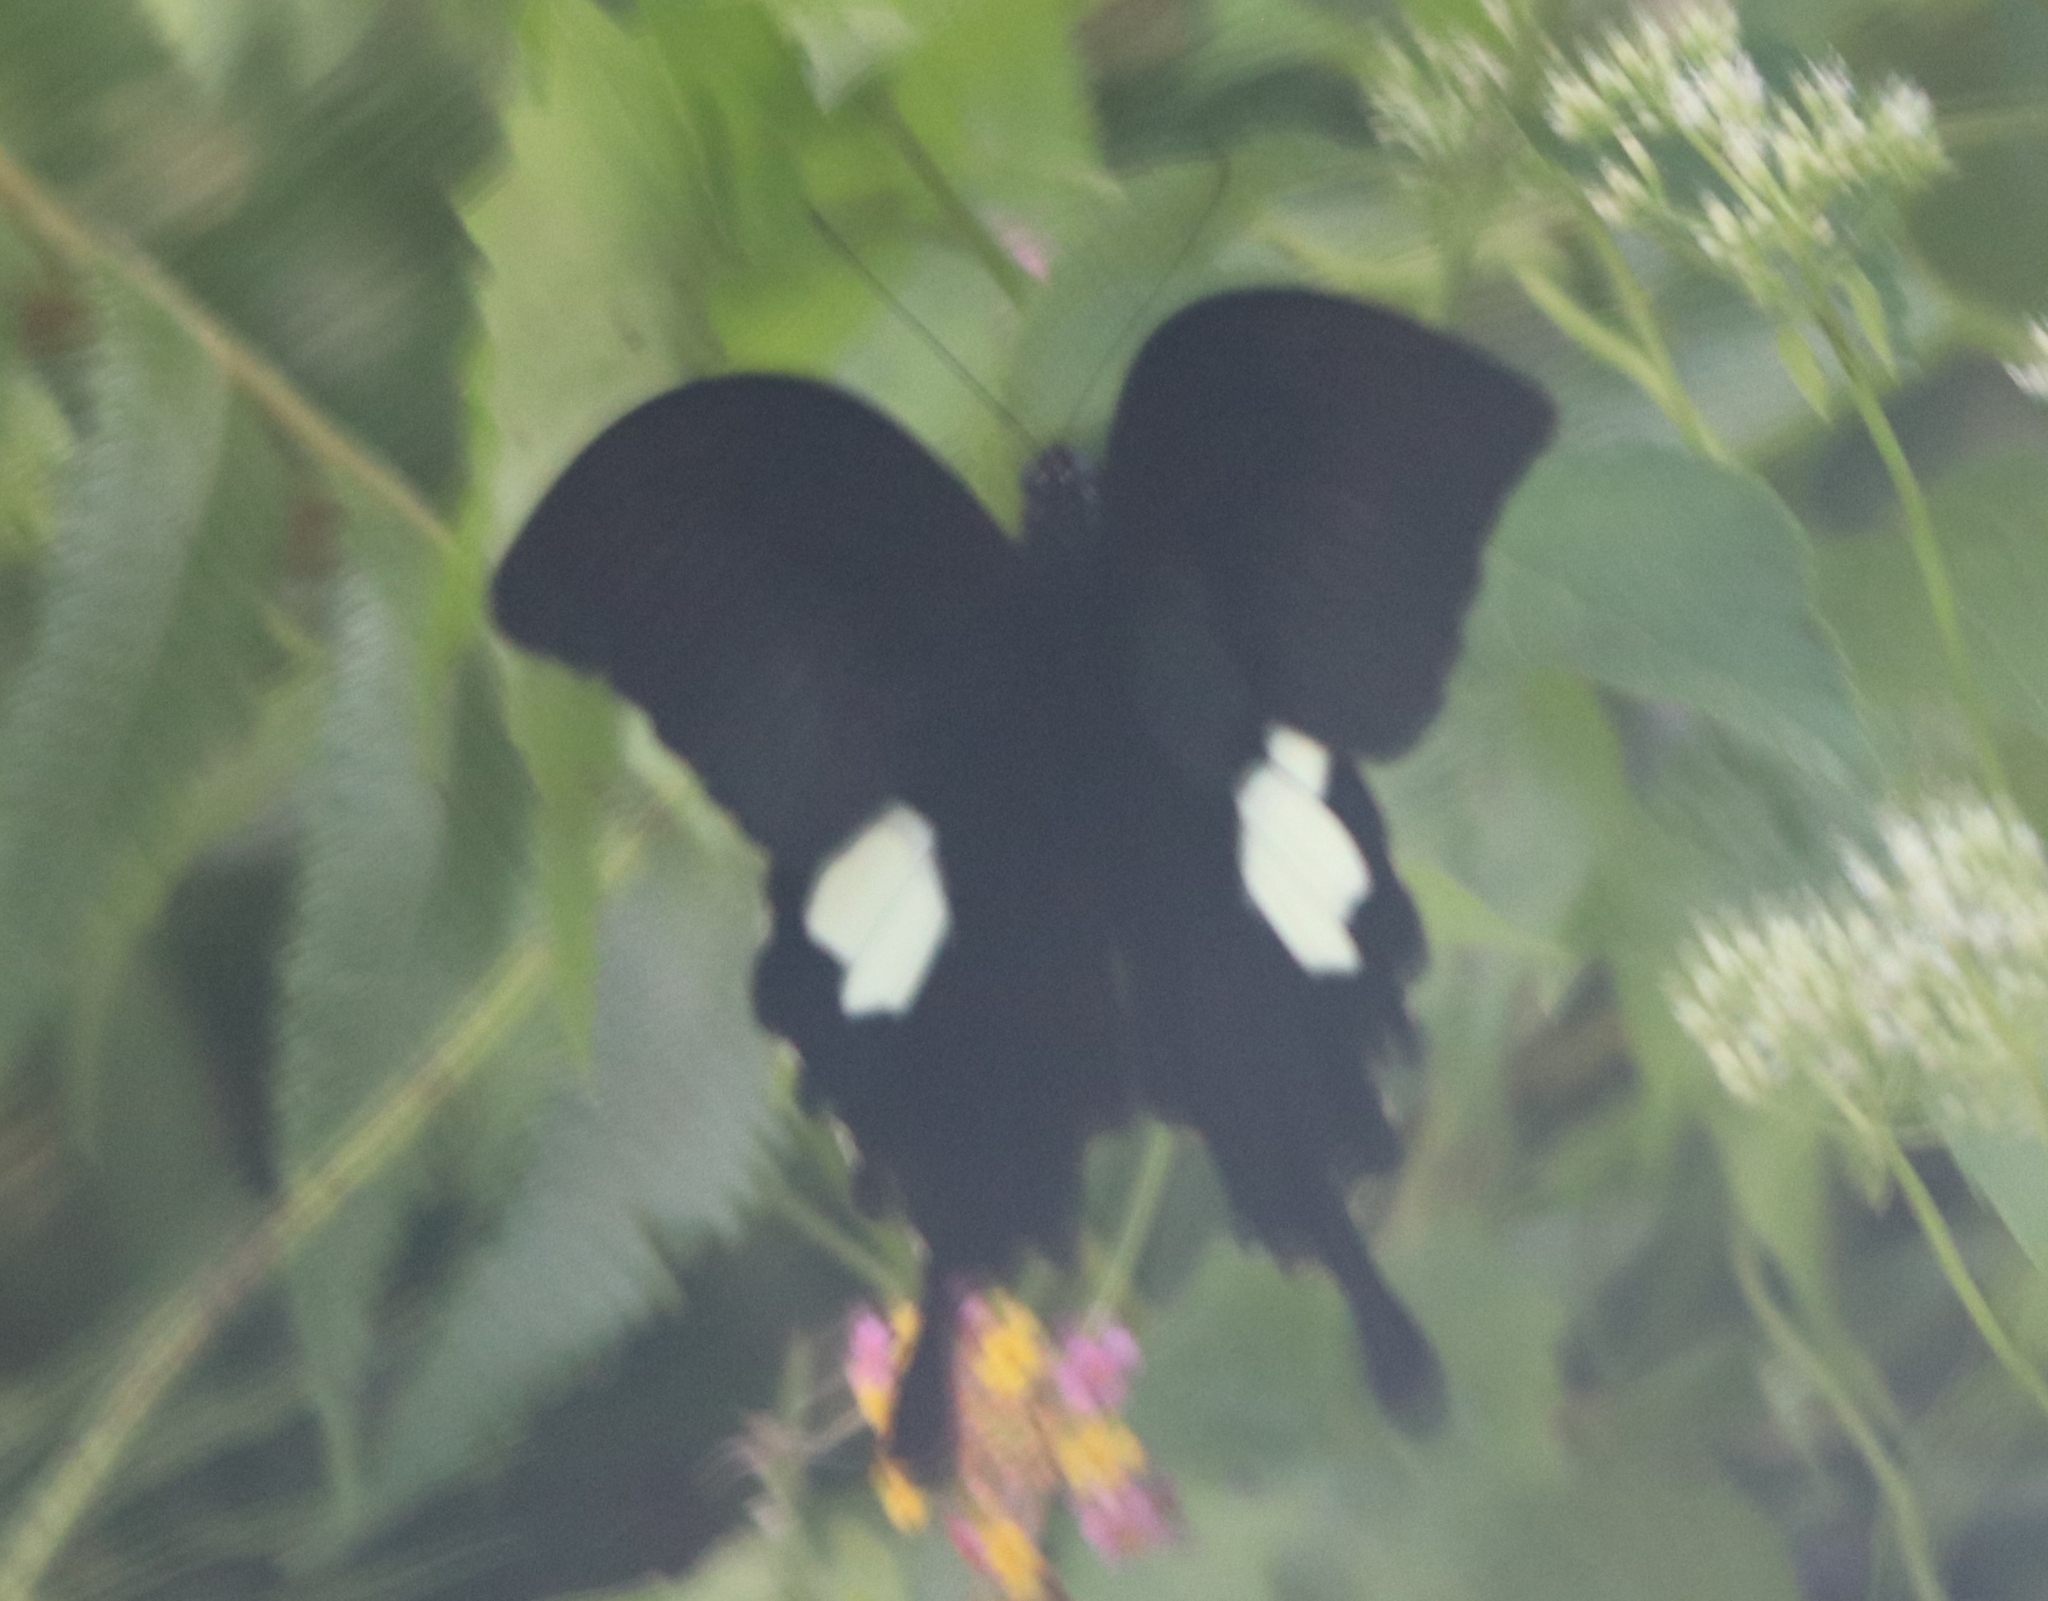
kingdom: Animalia
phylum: Arthropoda
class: Insecta
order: Lepidoptera
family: Papilionidae
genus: Papilio
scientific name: Papilio sataspes
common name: Sulawesi red helen
